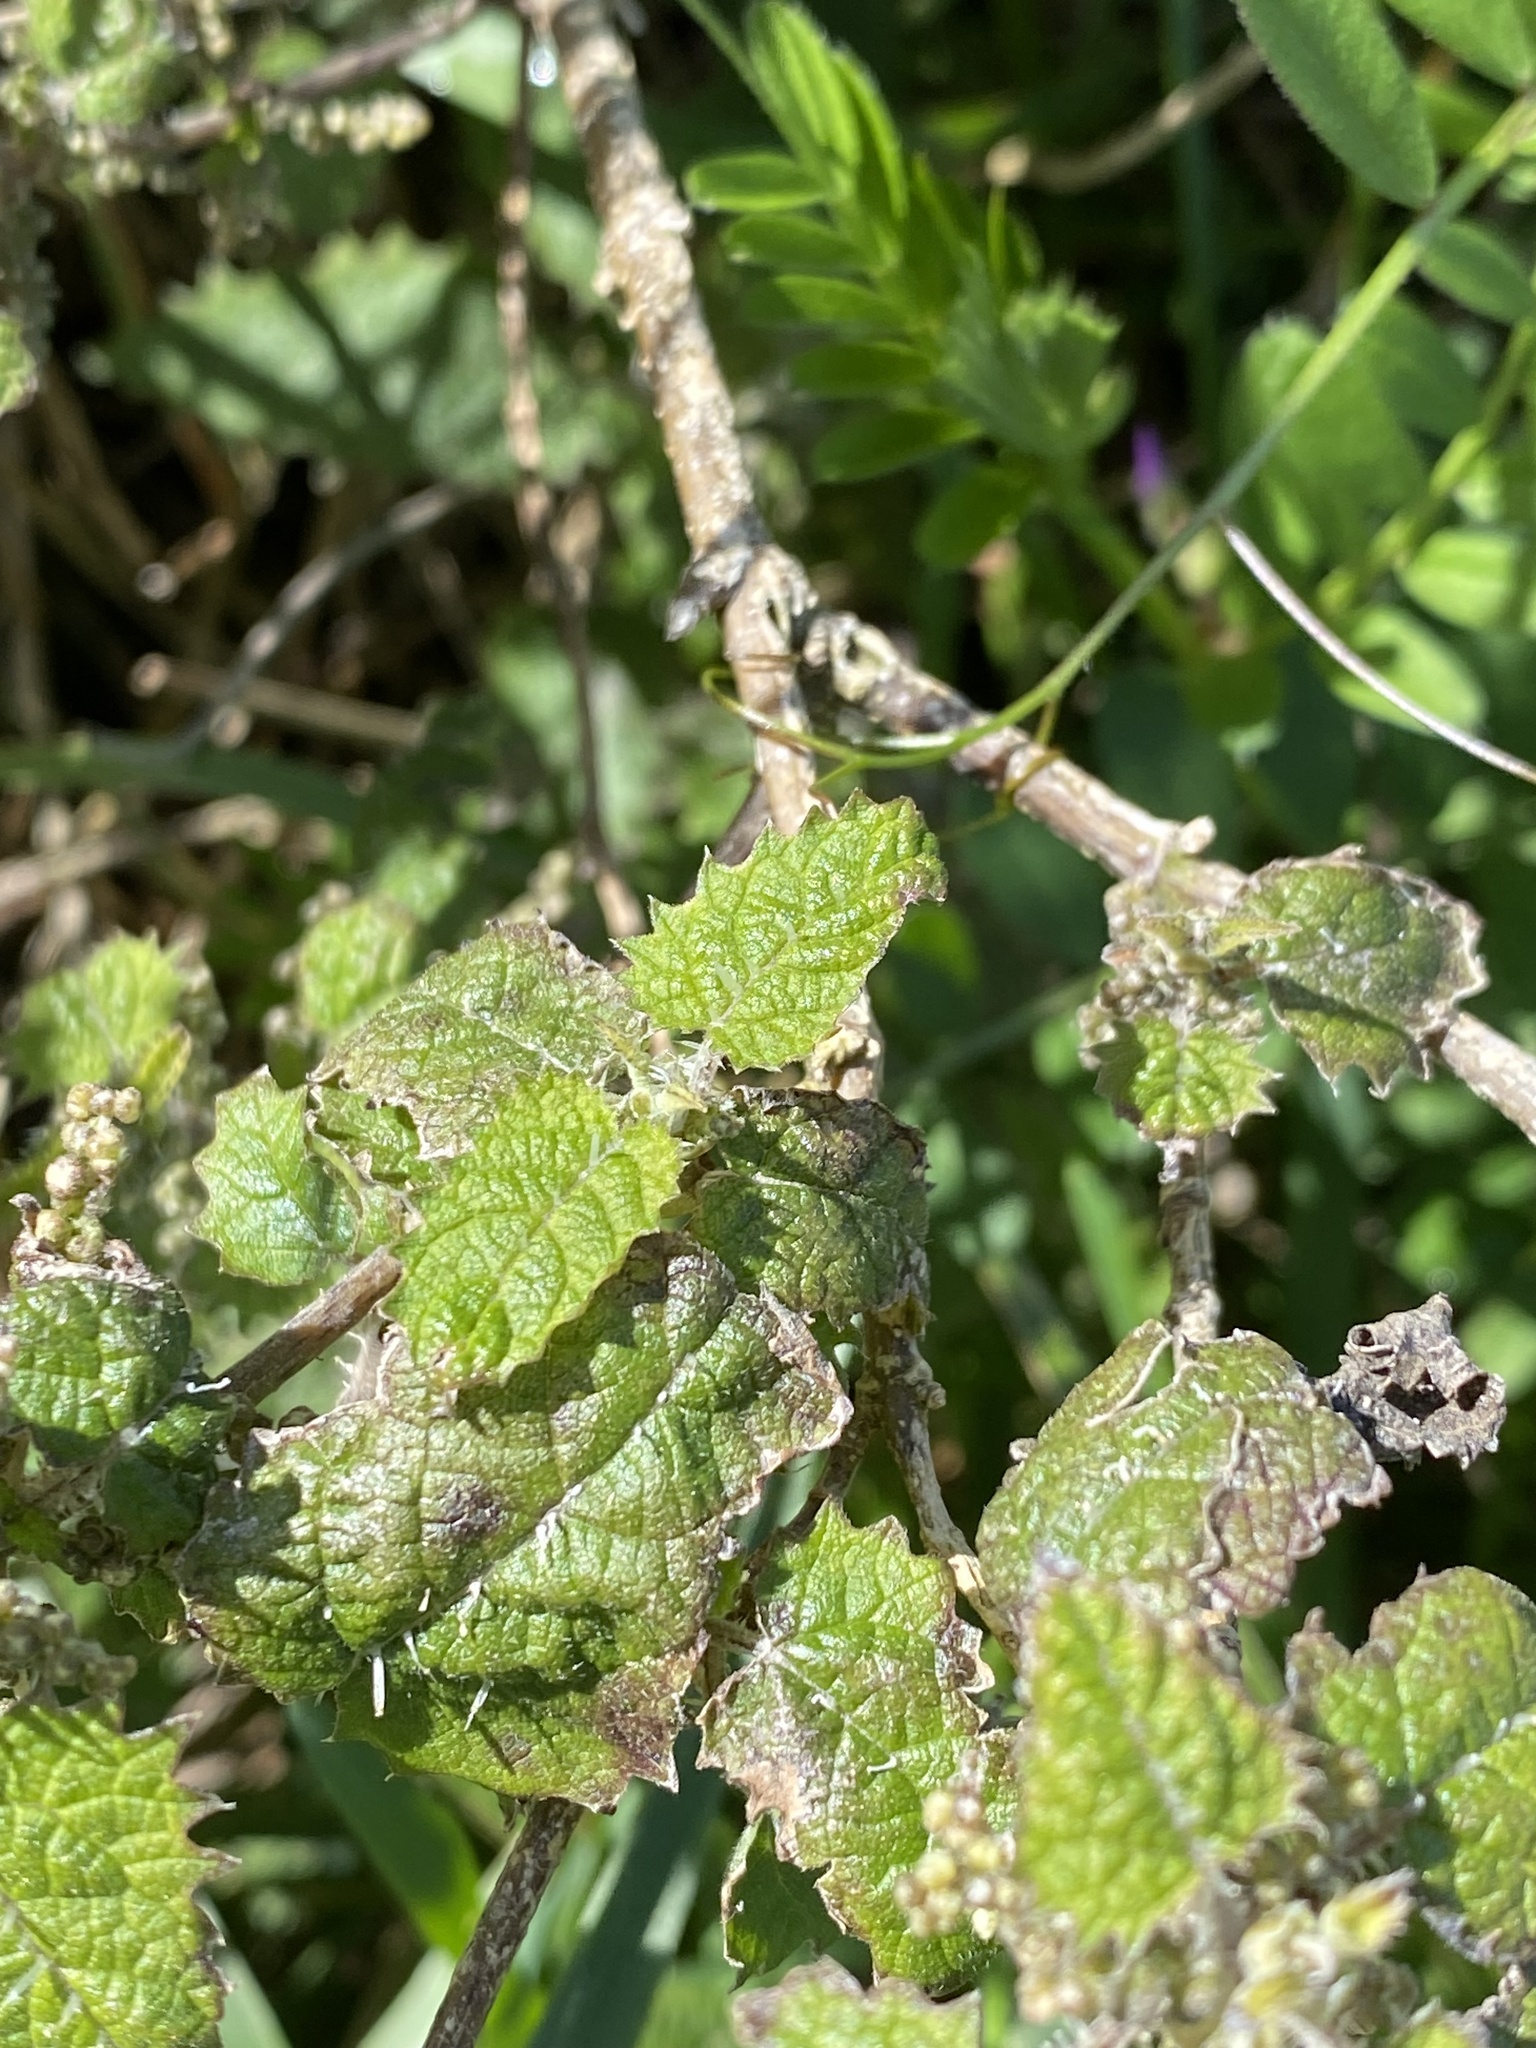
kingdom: Plantae
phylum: Tracheophyta
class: Magnoliopsida
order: Rosales
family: Urticaceae
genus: Urtica
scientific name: Urtica ferox
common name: Tree nettle
